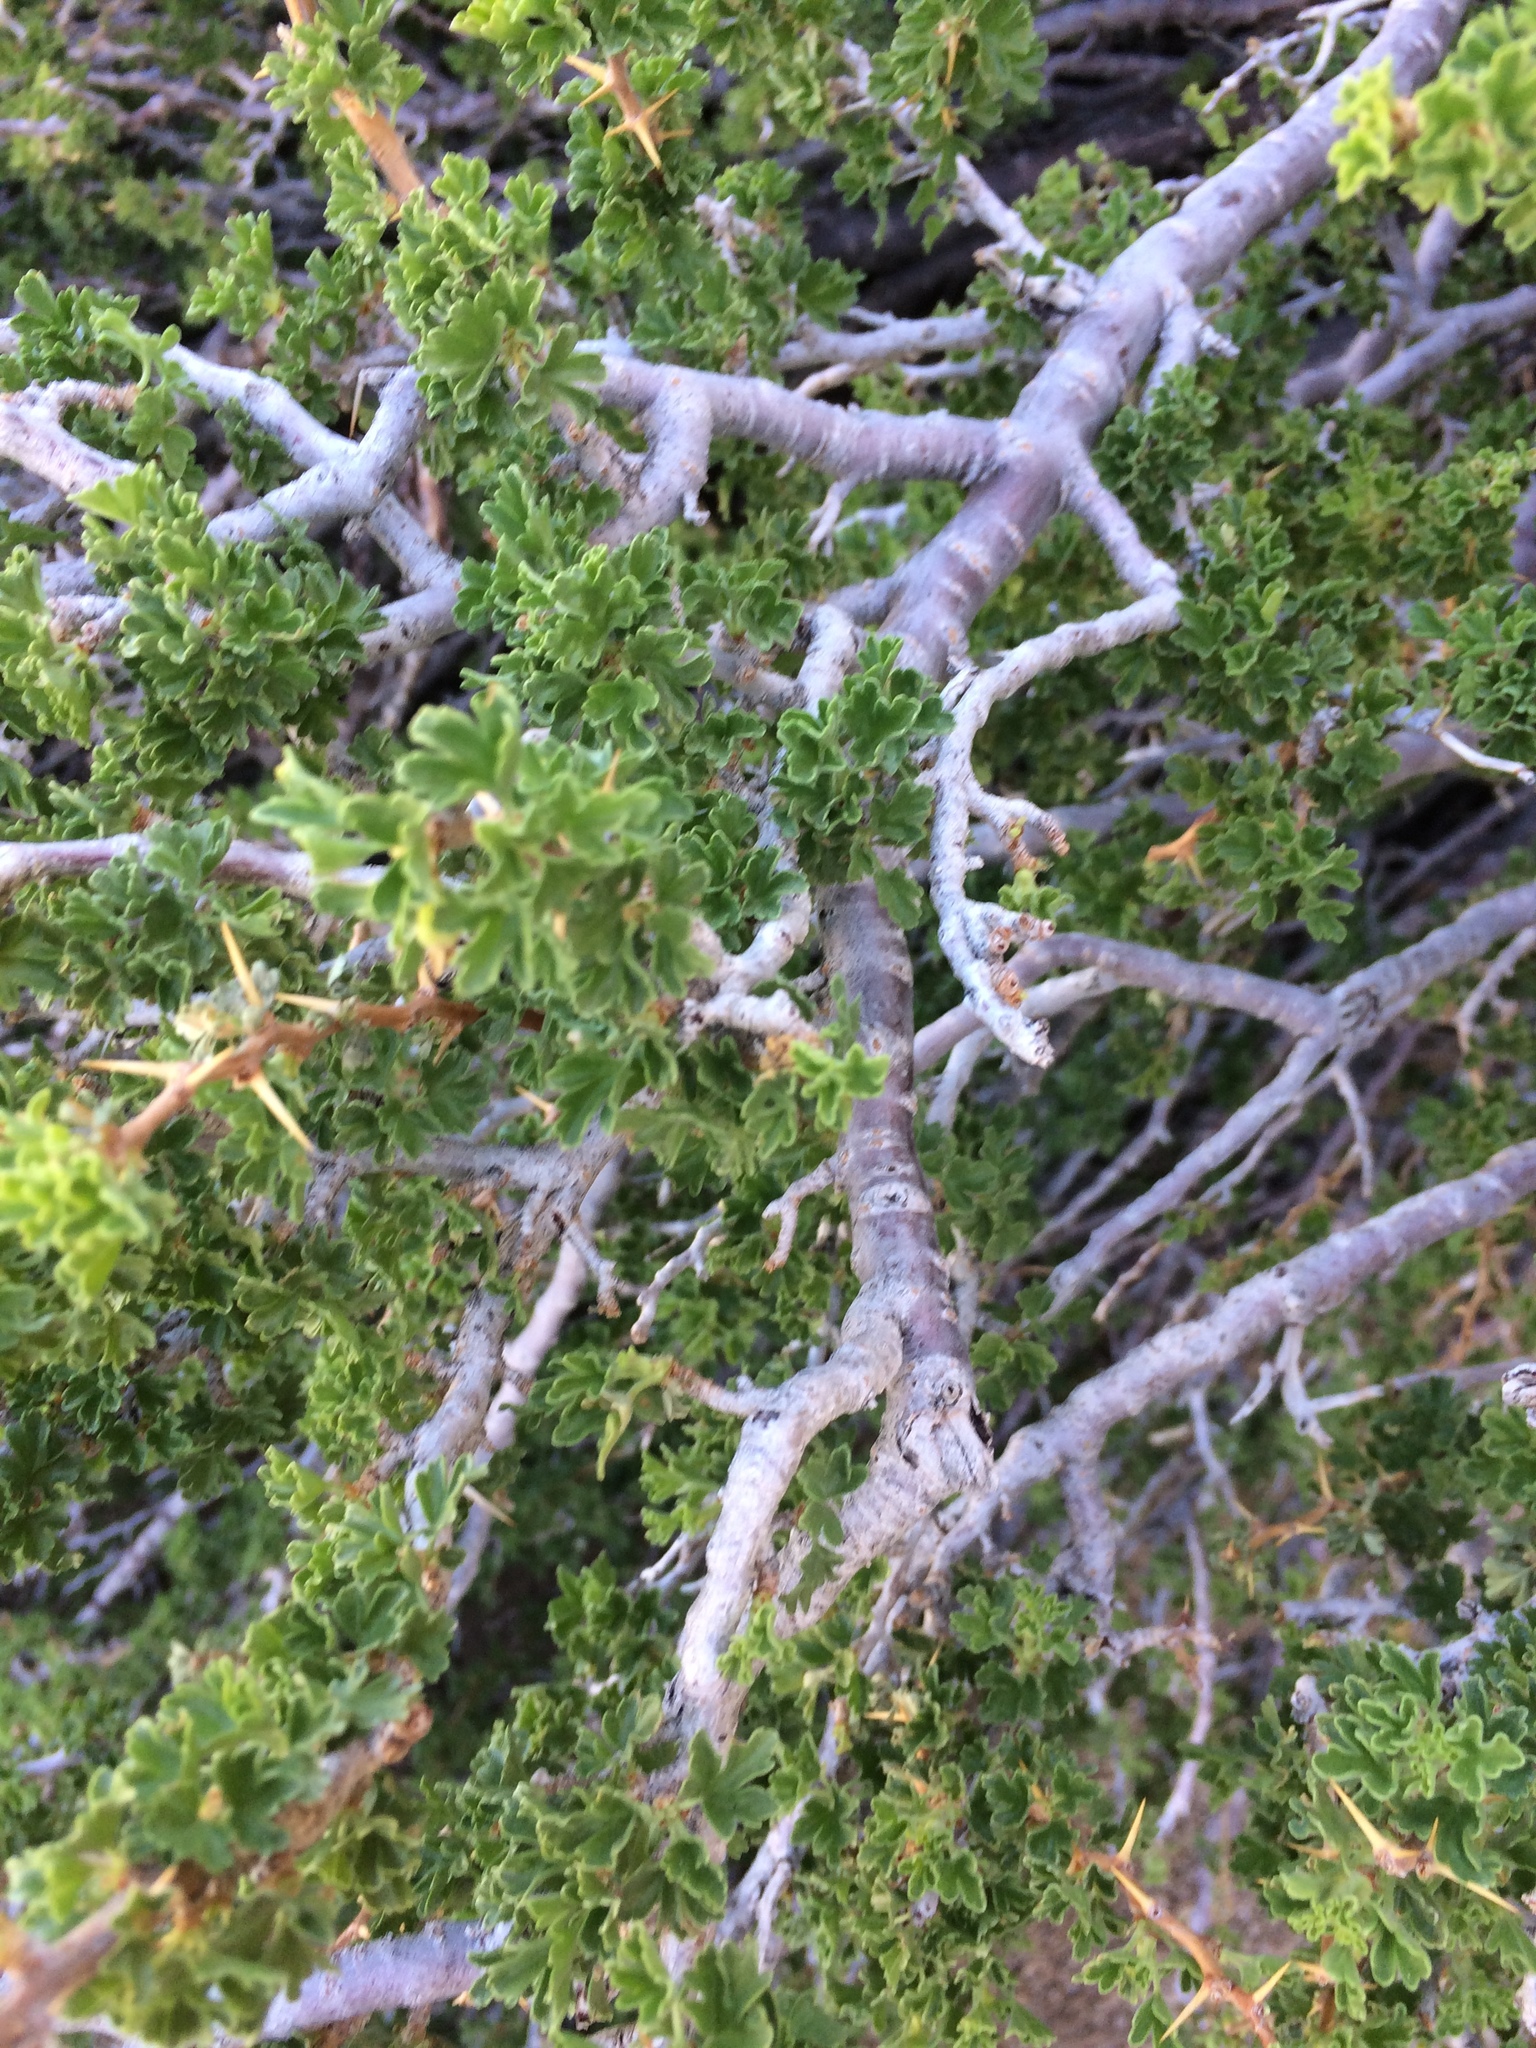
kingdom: Plantae
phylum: Tracheophyta
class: Magnoliopsida
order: Saxifragales
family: Grossulariaceae
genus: Ribes
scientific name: Ribes velutinum
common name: Desert gooseberry
